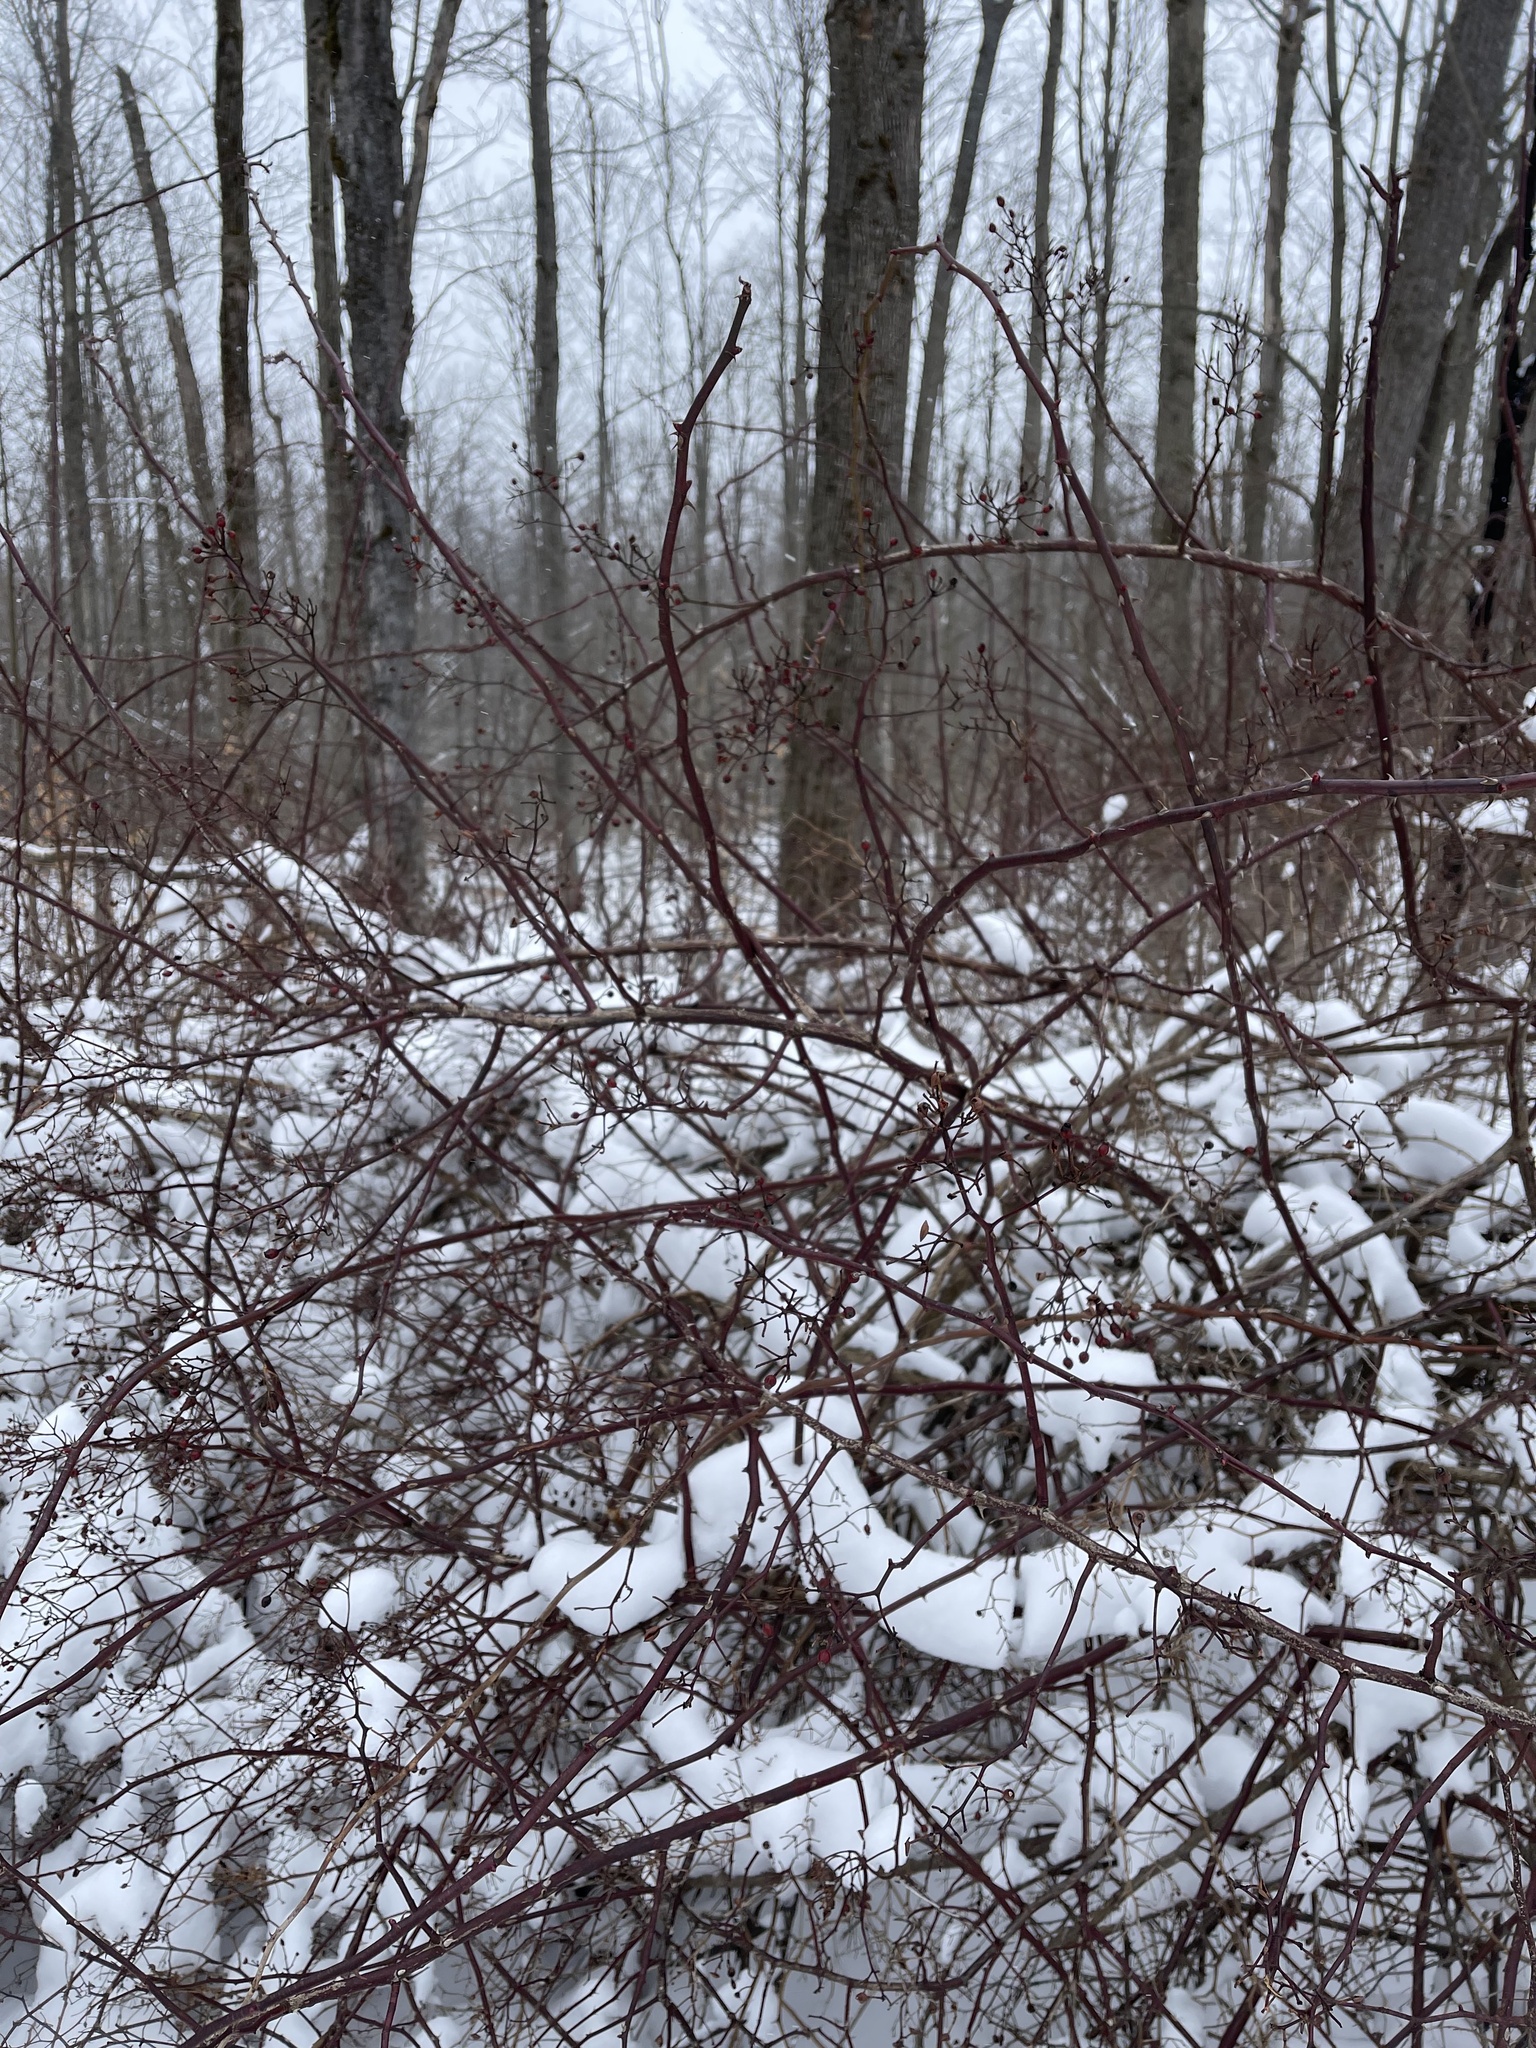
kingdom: Plantae
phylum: Tracheophyta
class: Magnoliopsida
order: Rosales
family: Rosaceae
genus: Rosa
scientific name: Rosa multiflora
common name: Multiflora rose
